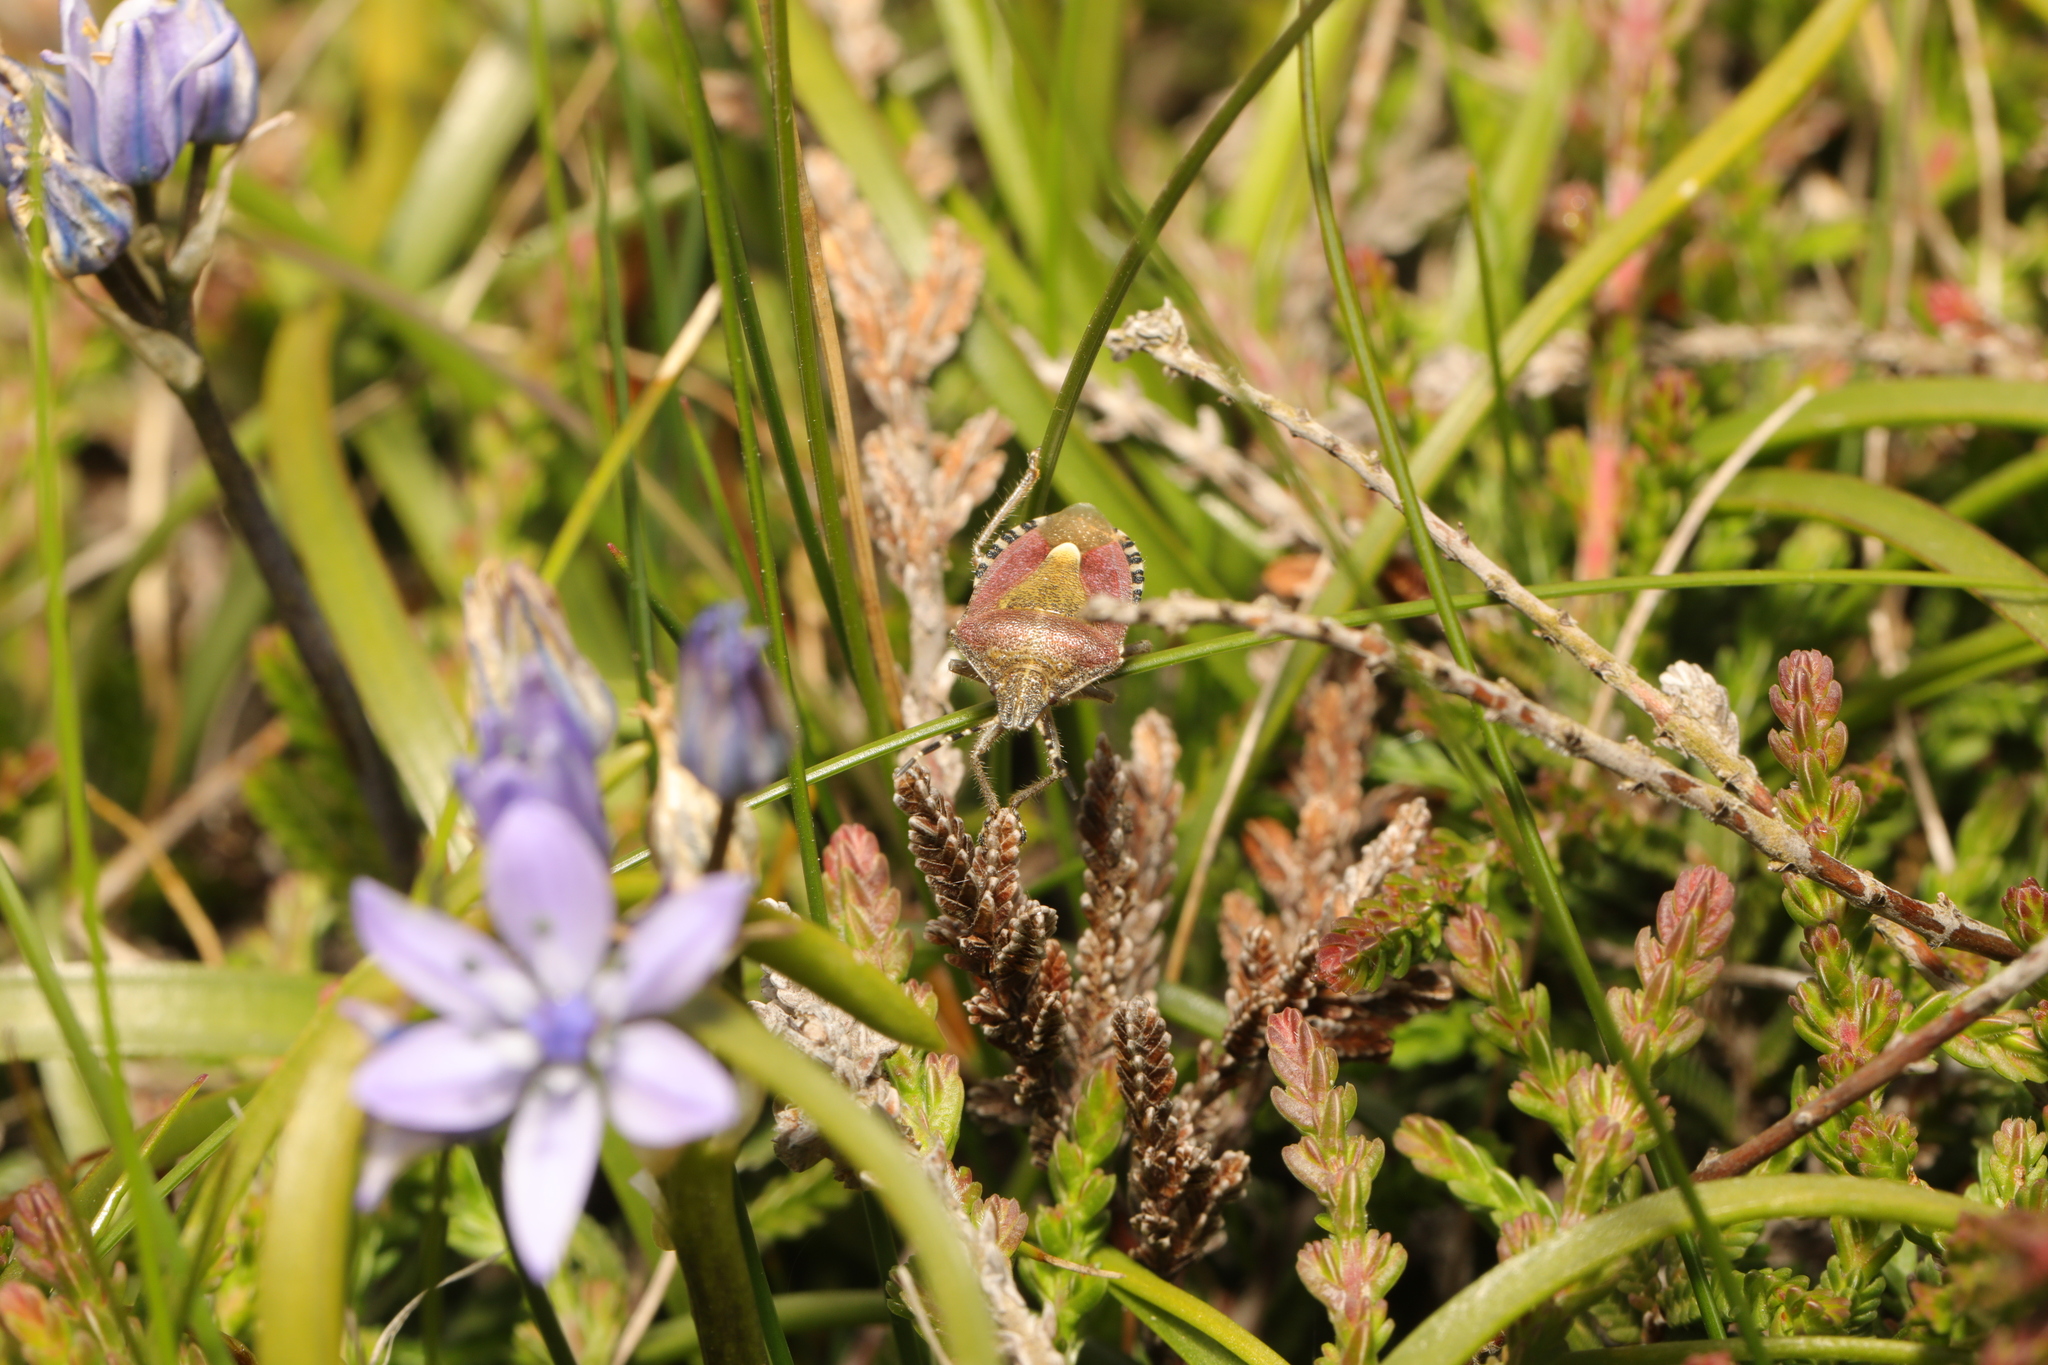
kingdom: Animalia
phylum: Arthropoda
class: Insecta
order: Hemiptera
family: Pentatomidae
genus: Dolycoris
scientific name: Dolycoris baccarum
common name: Sloe bug
